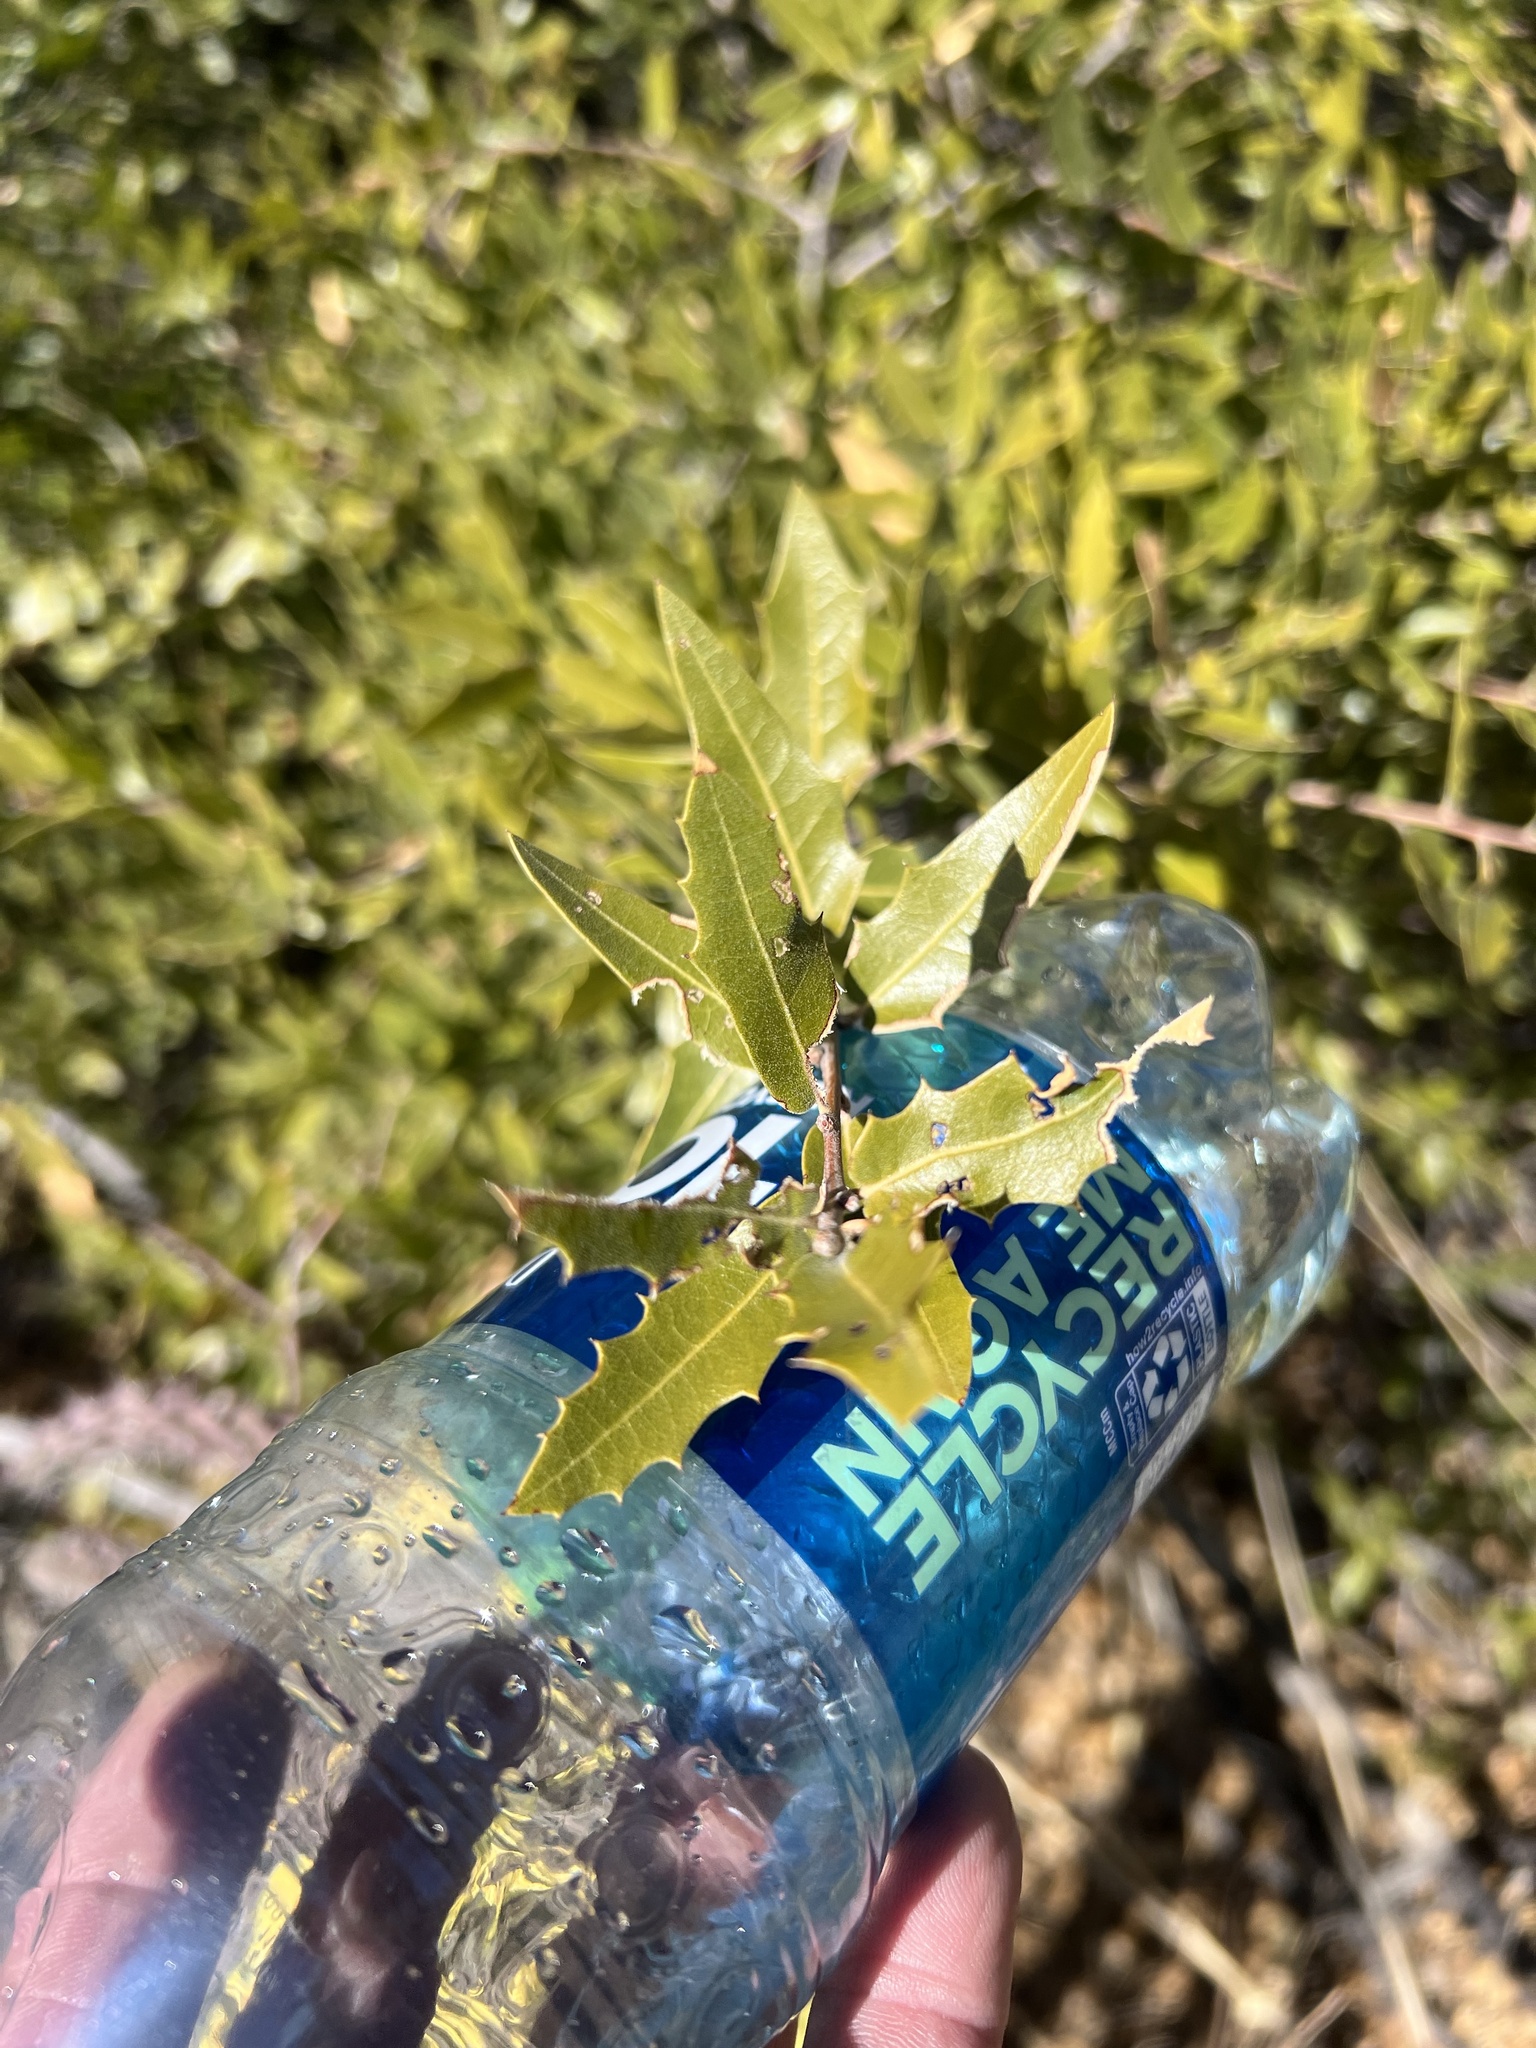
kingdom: Plantae
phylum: Tracheophyta
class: Magnoliopsida
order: Fagales
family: Fagaceae
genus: Quercus
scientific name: Quercus emoryi
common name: Emory oak
